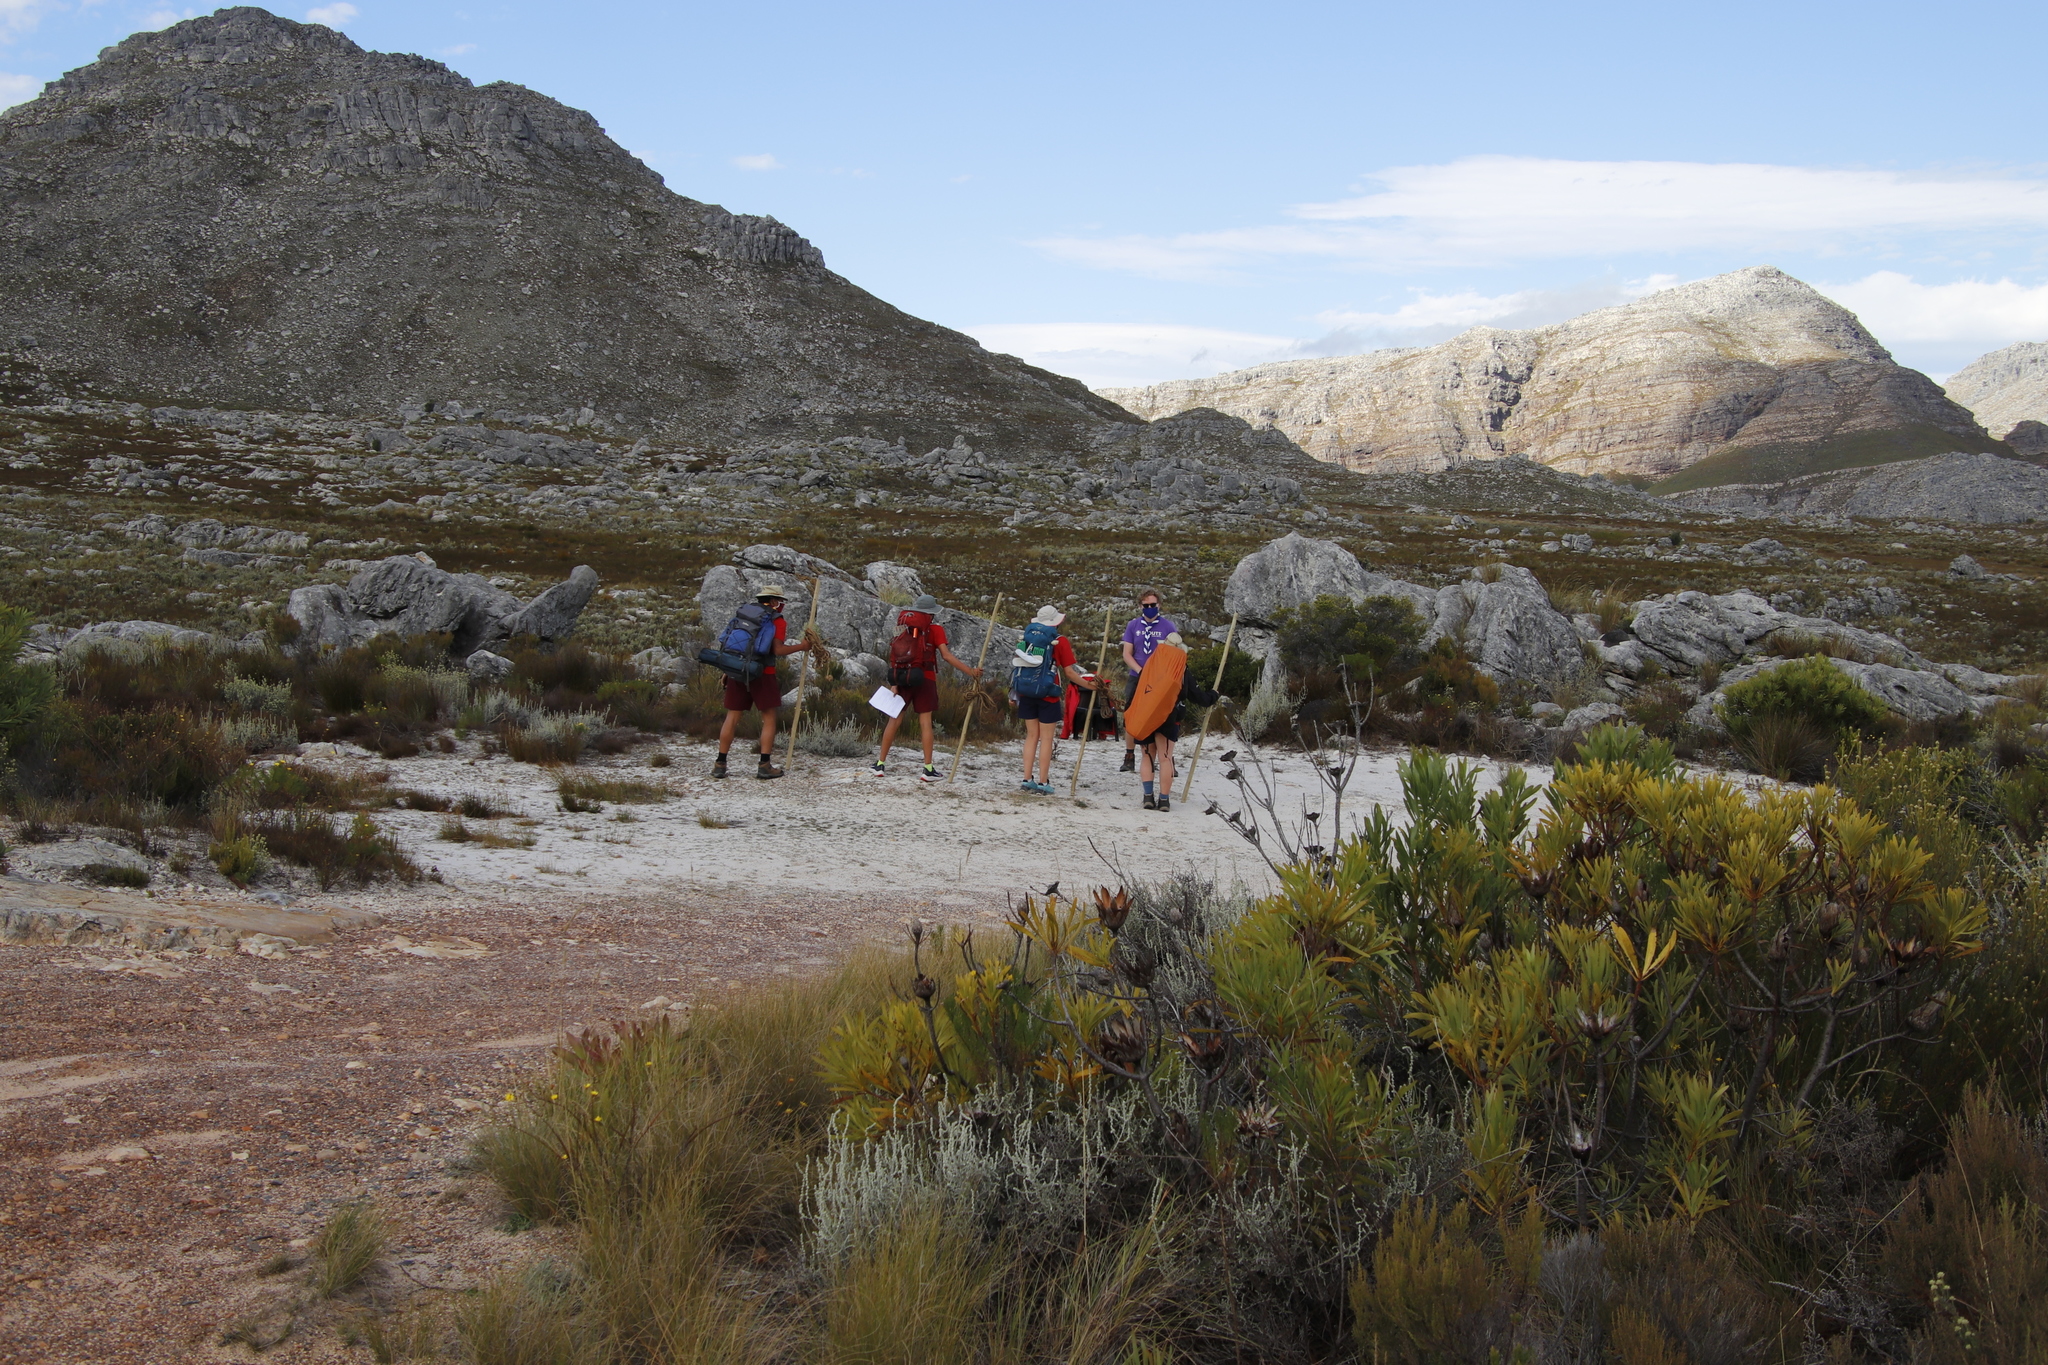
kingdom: Plantae
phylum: Tracheophyta
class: Magnoliopsida
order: Proteales
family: Proteaceae
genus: Protea
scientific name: Protea repens
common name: Sugarbush
